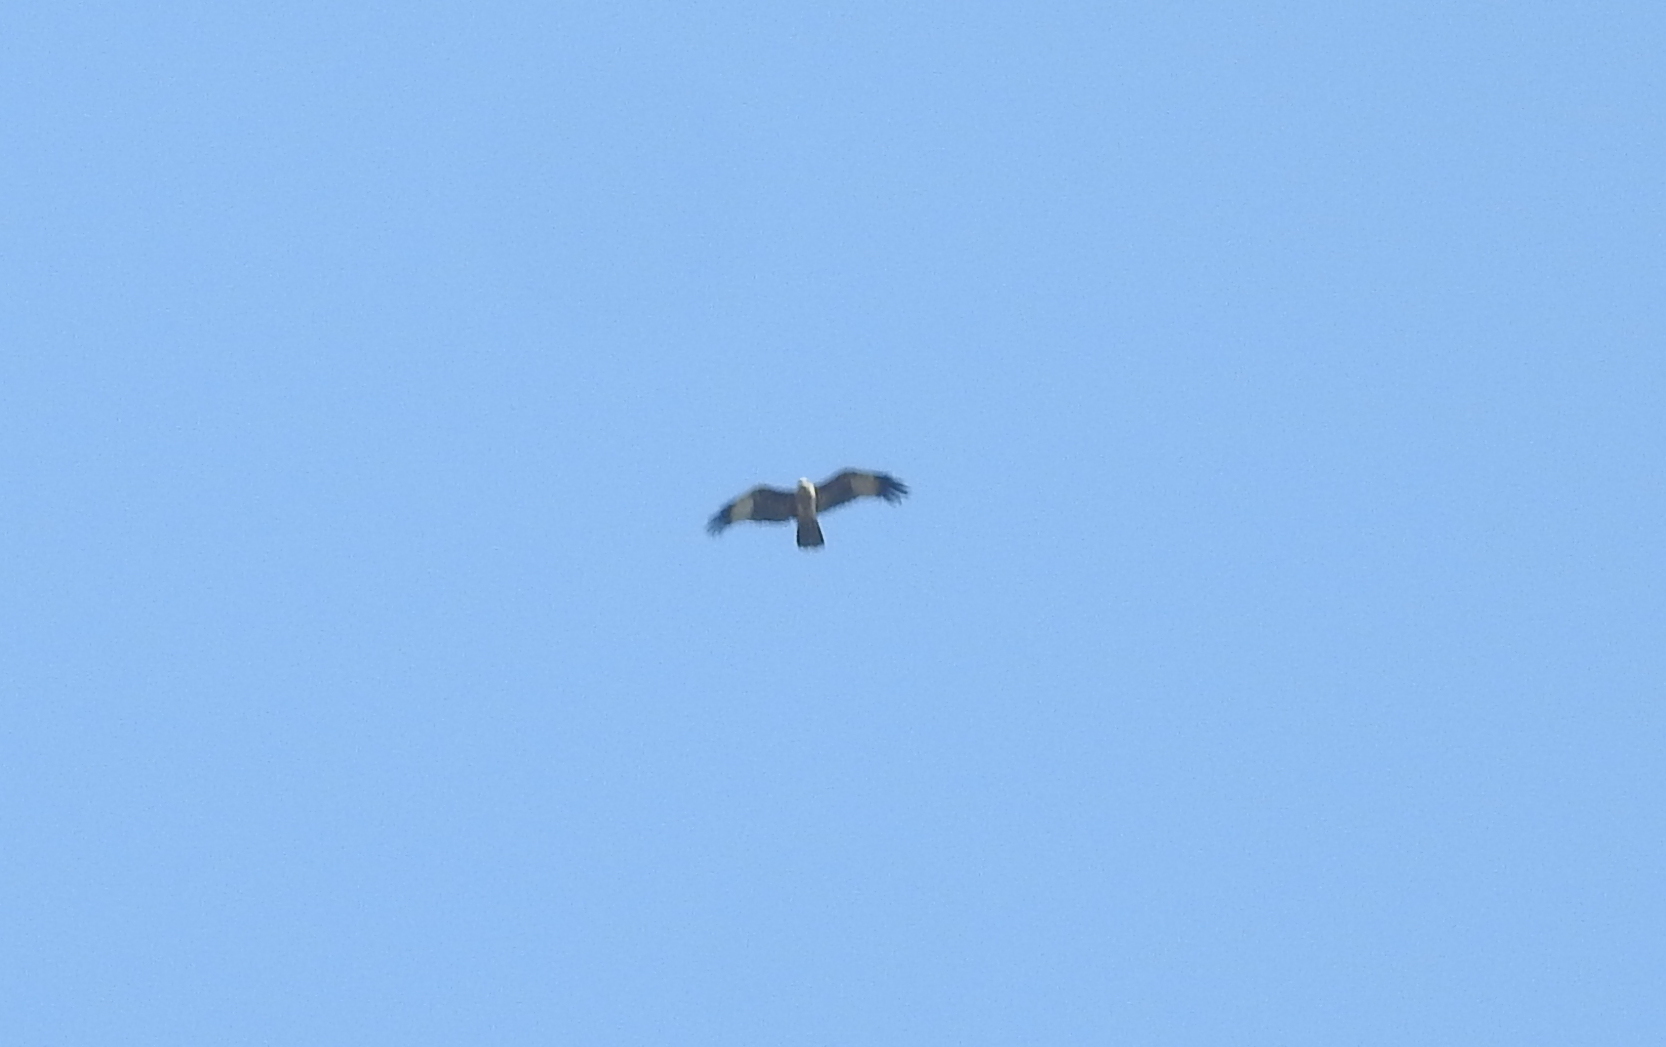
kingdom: Animalia
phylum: Chordata
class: Aves
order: Accipitriformes
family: Accipitridae
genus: Haliastur
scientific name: Haliastur indus
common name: Brahminy kite
